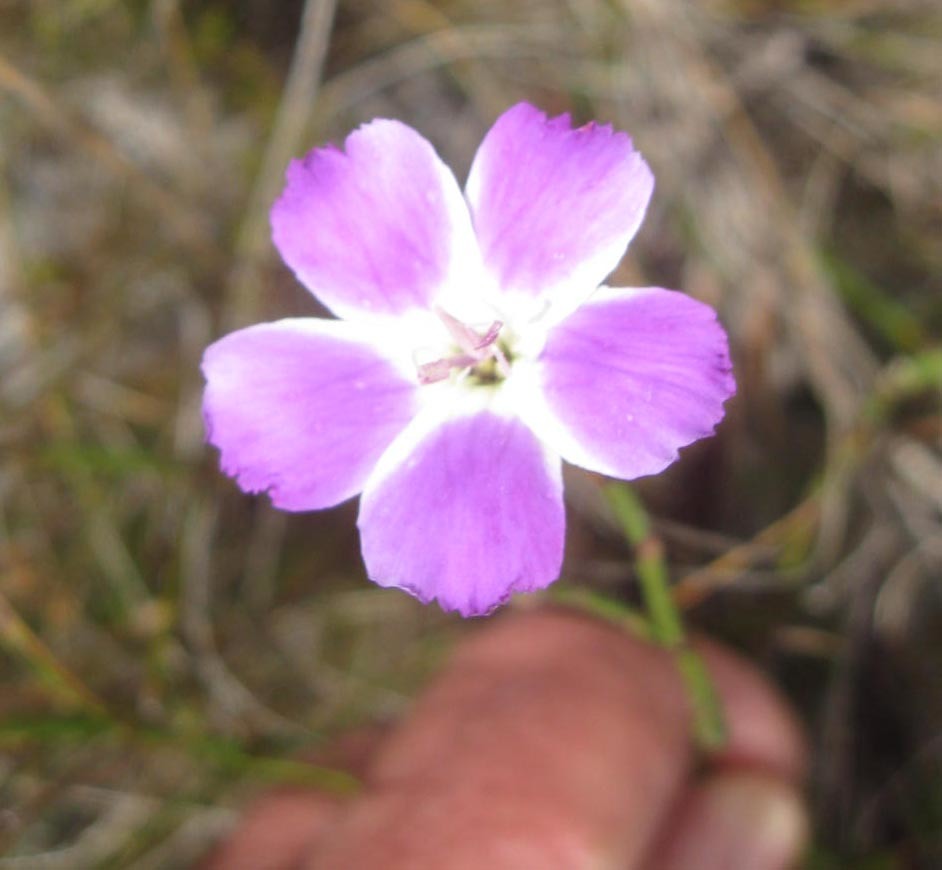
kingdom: Plantae
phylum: Tracheophyta
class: Magnoliopsida
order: Caryophyllales
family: Caryophyllaceae
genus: Dianthus
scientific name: Dianthus albens
